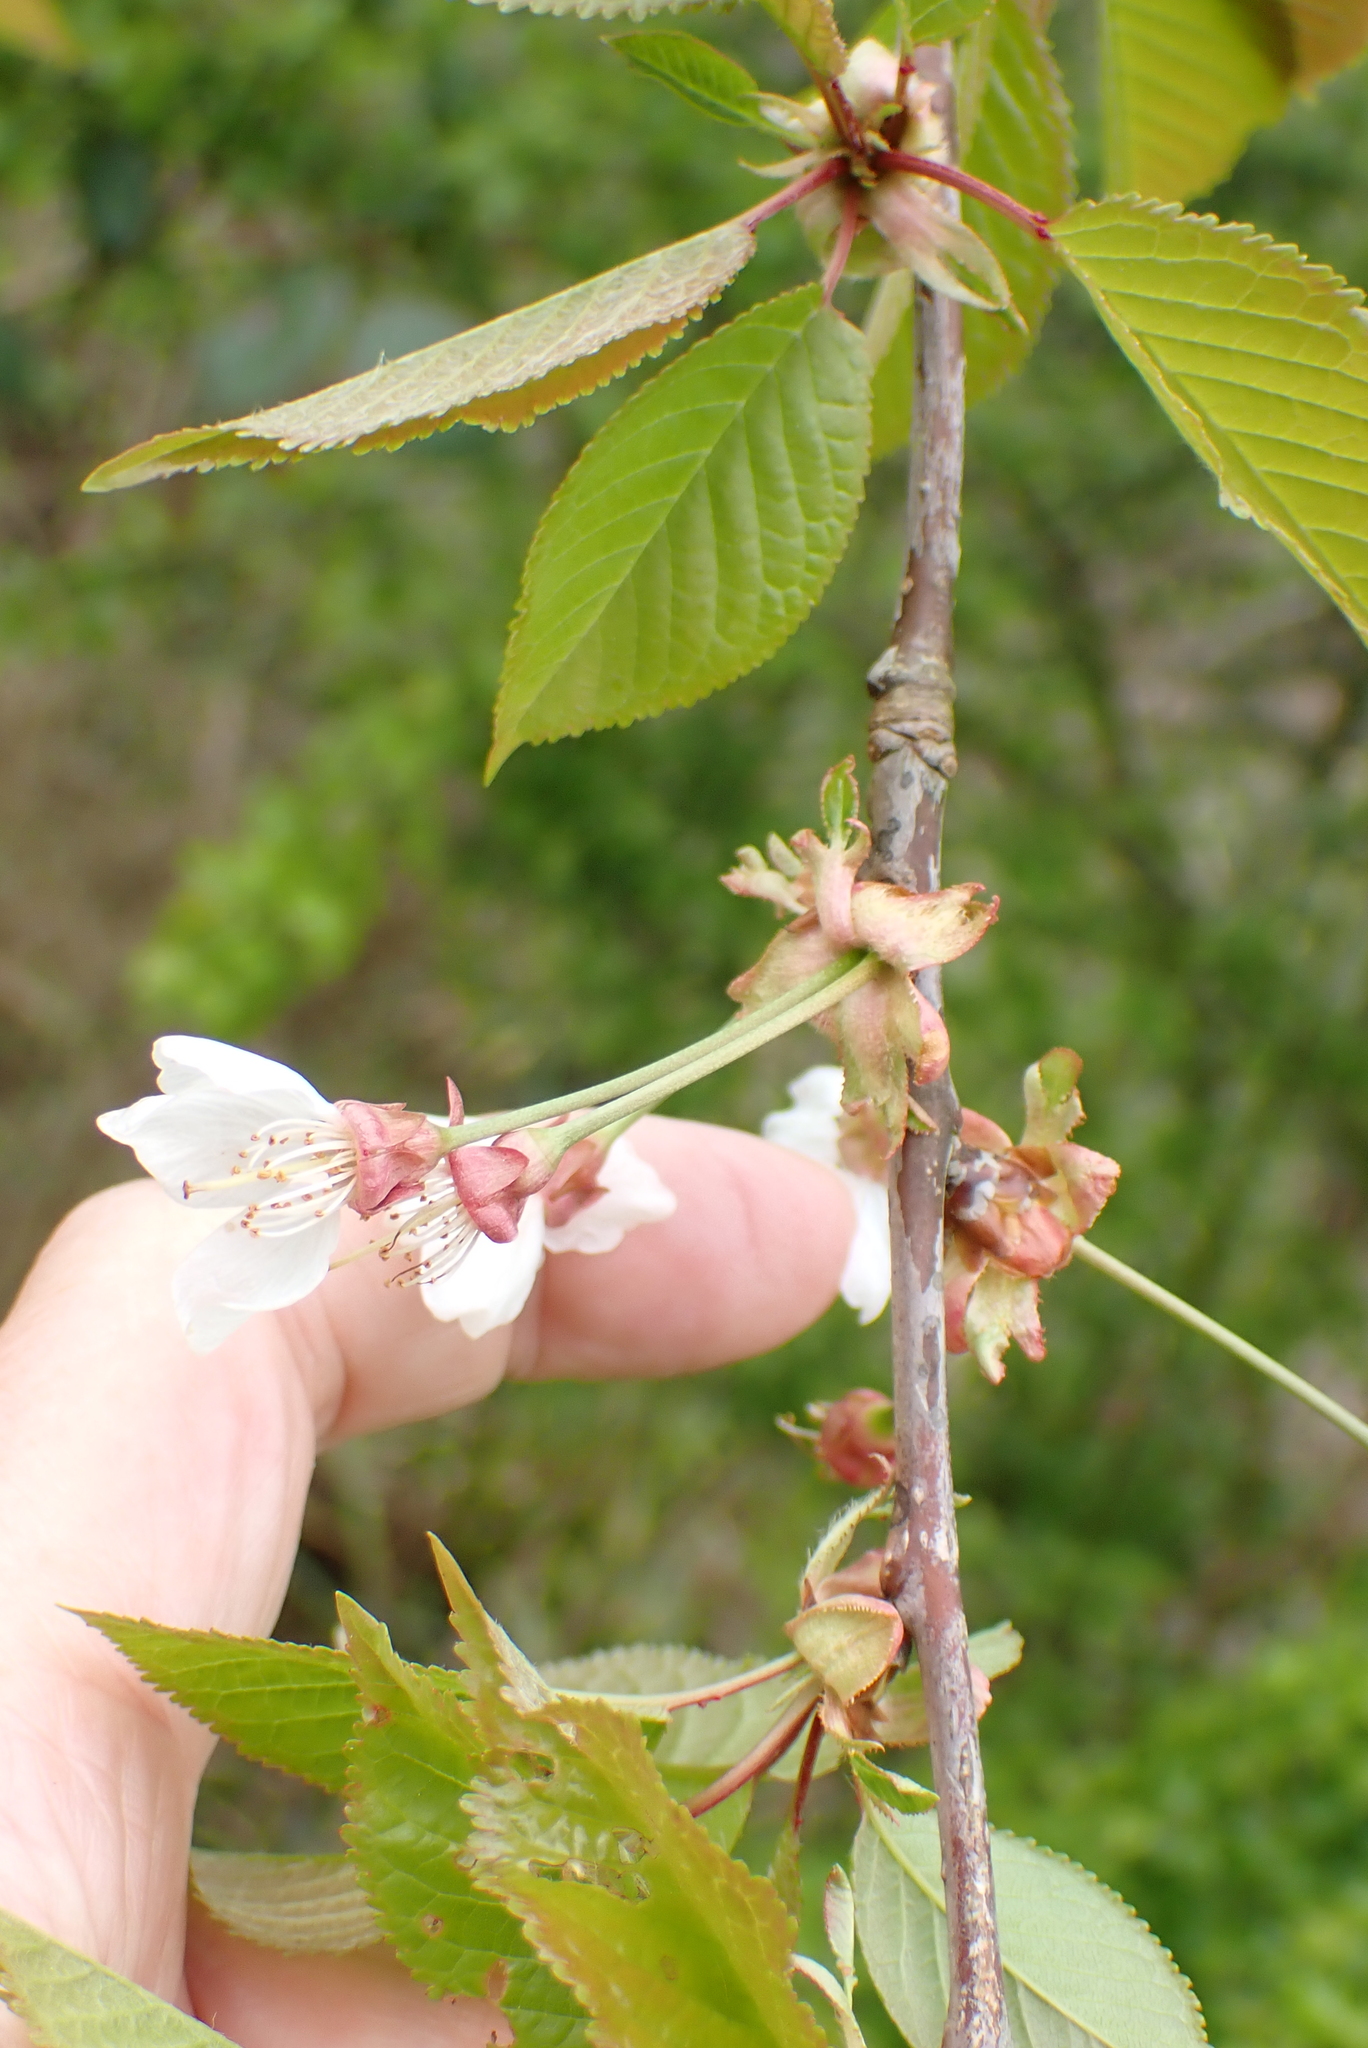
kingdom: Plantae
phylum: Tracheophyta
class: Magnoliopsida
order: Rosales
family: Rosaceae
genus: Prunus
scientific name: Prunus avium
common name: Sweet cherry
